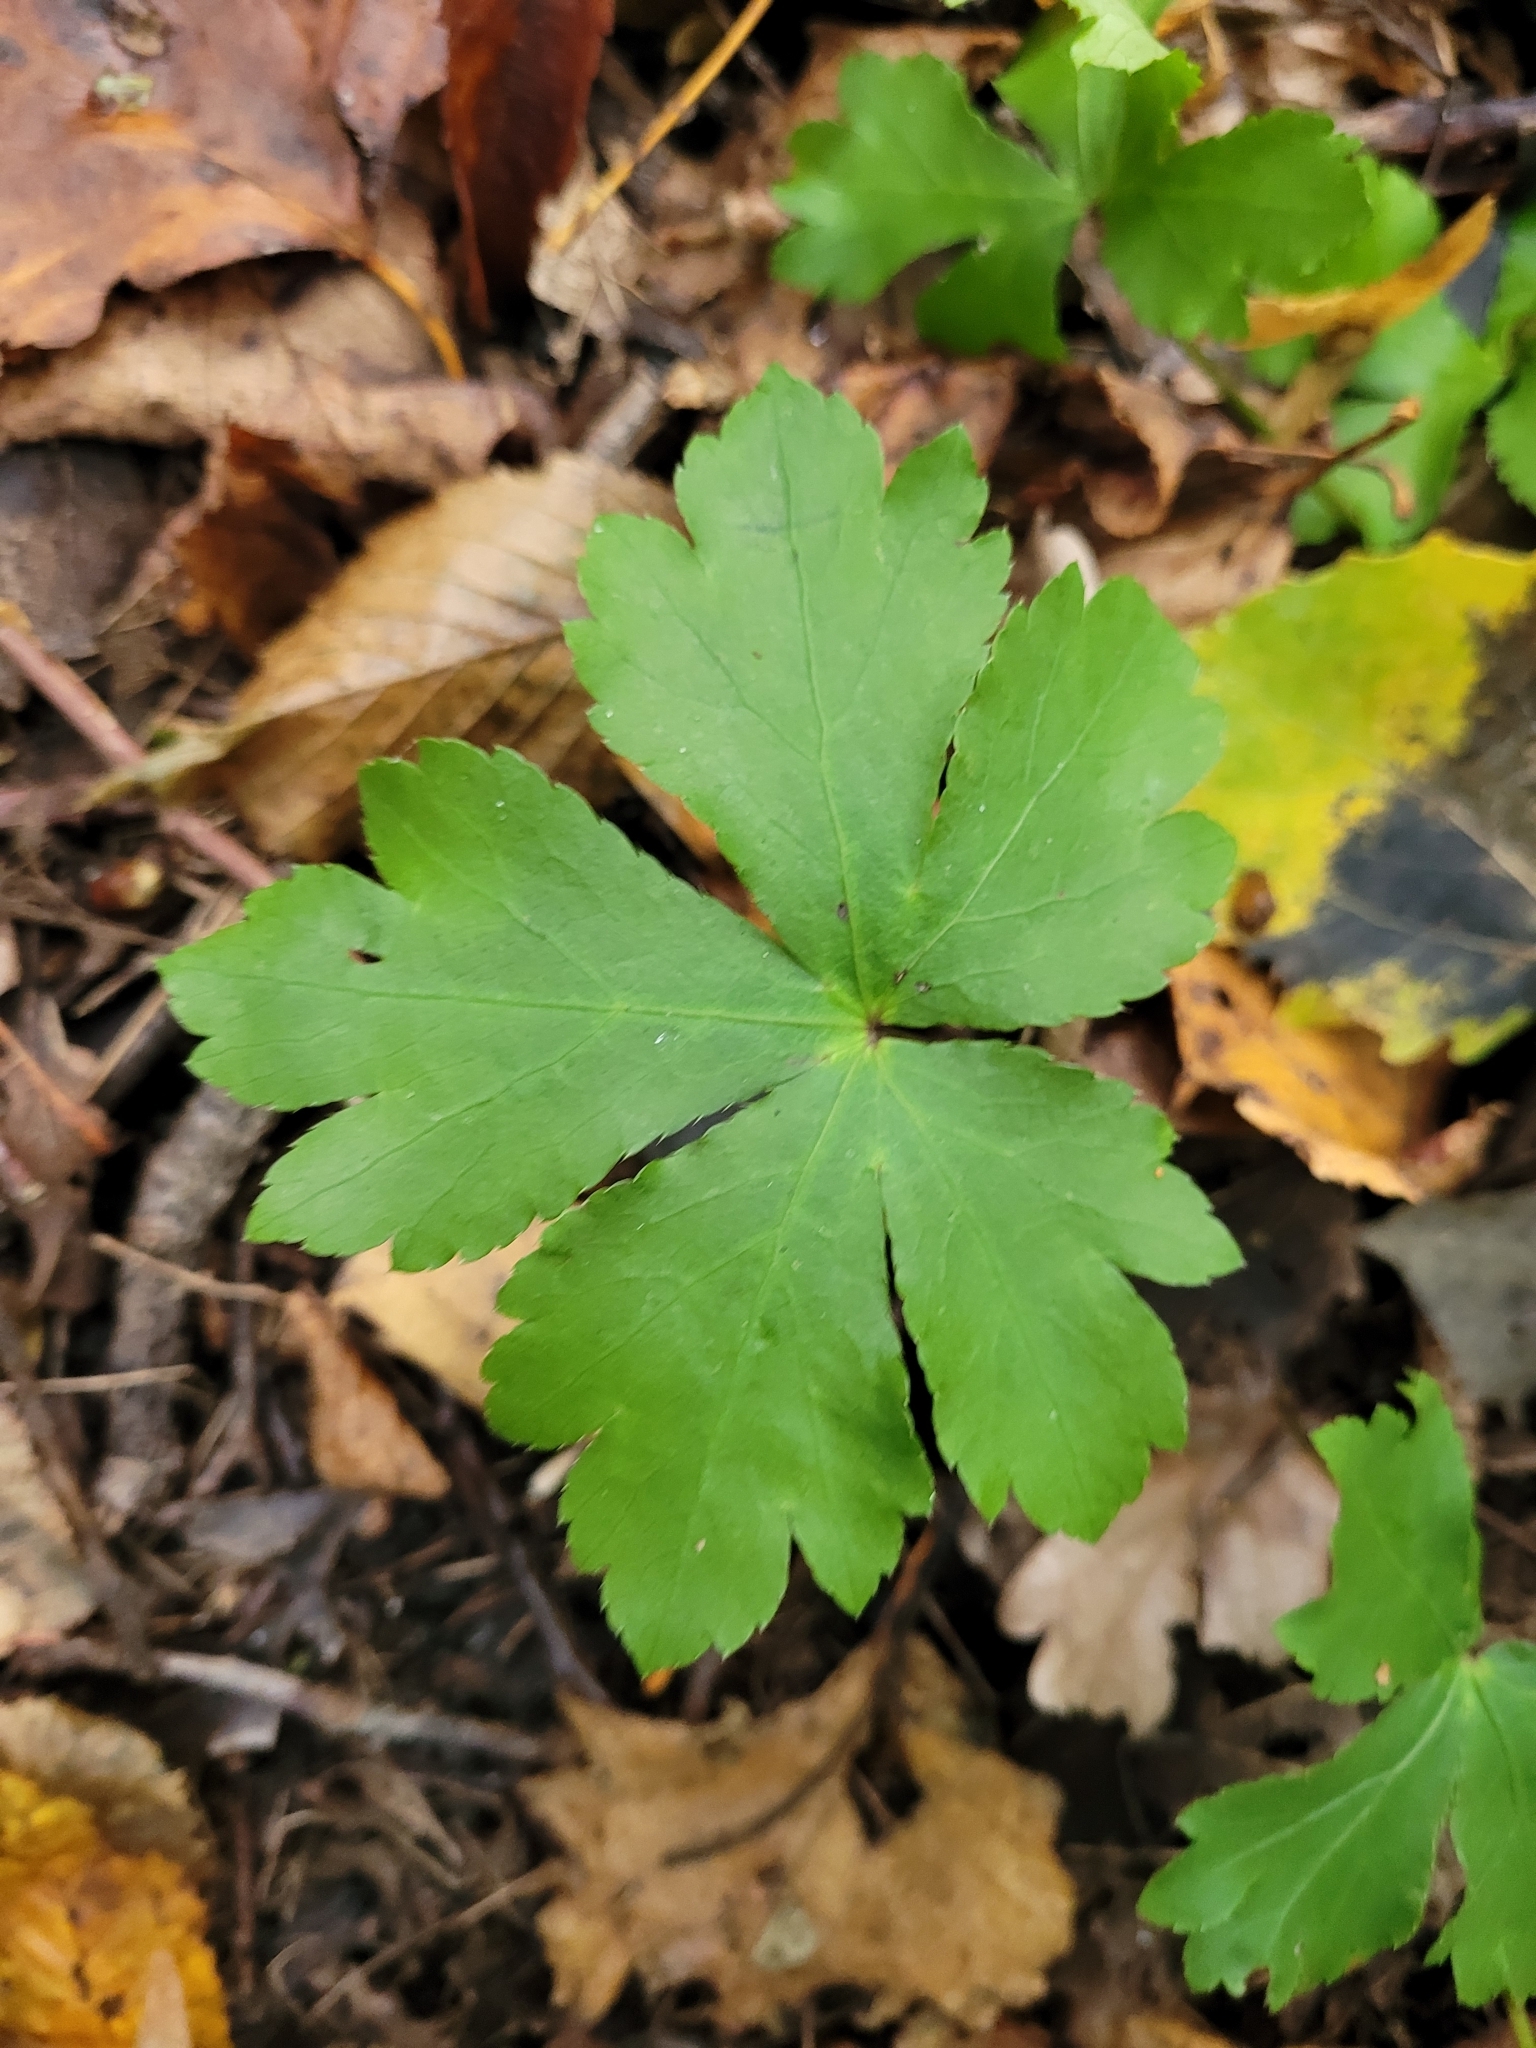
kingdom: Plantae
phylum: Tracheophyta
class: Magnoliopsida
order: Apiales
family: Apiaceae
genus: Sanicula
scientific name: Sanicula europaea
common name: Sanicle
